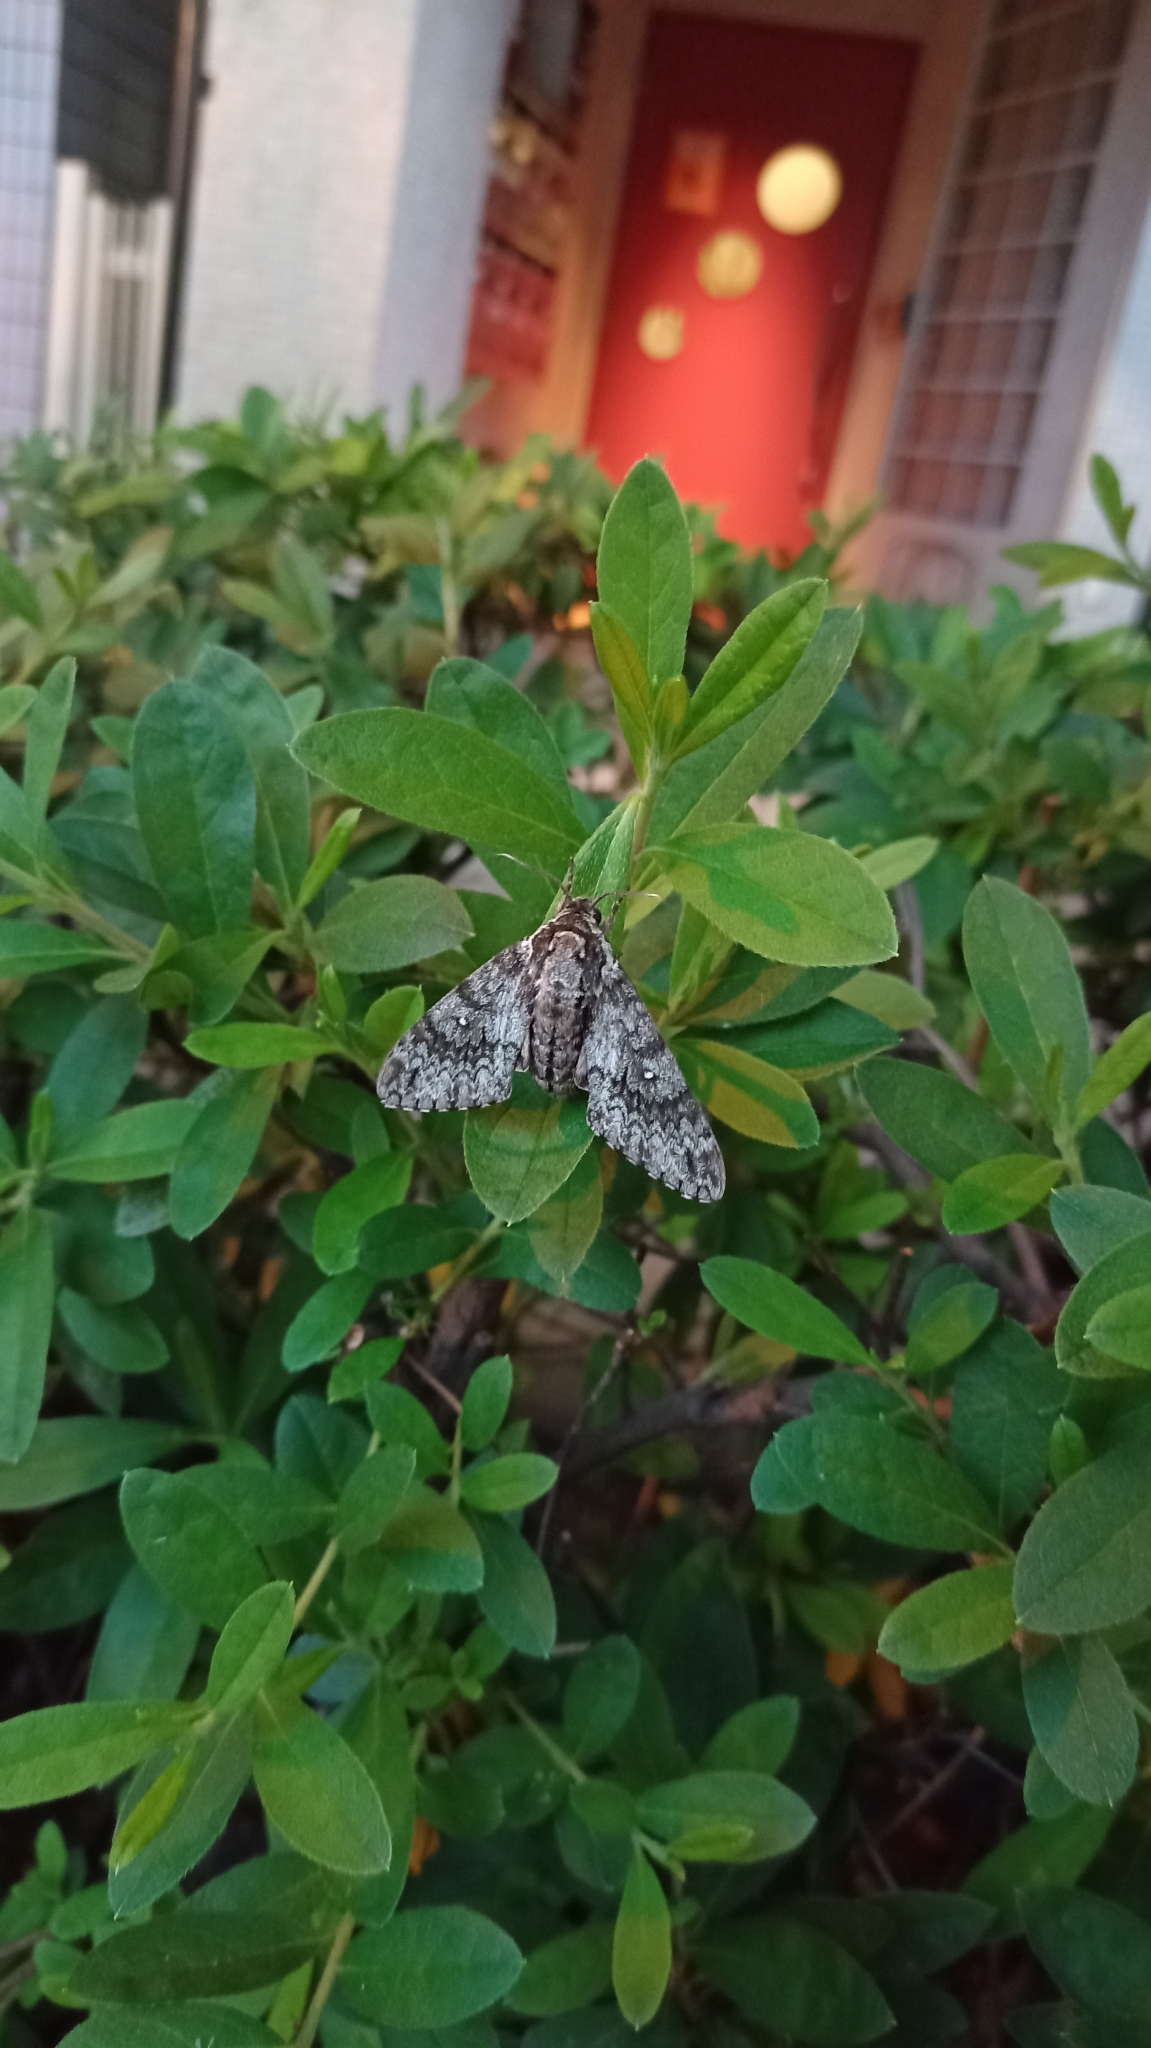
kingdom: Animalia
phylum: Arthropoda
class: Insecta
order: Lepidoptera
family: Sphingidae
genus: Dolbina
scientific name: Dolbina tancrei
